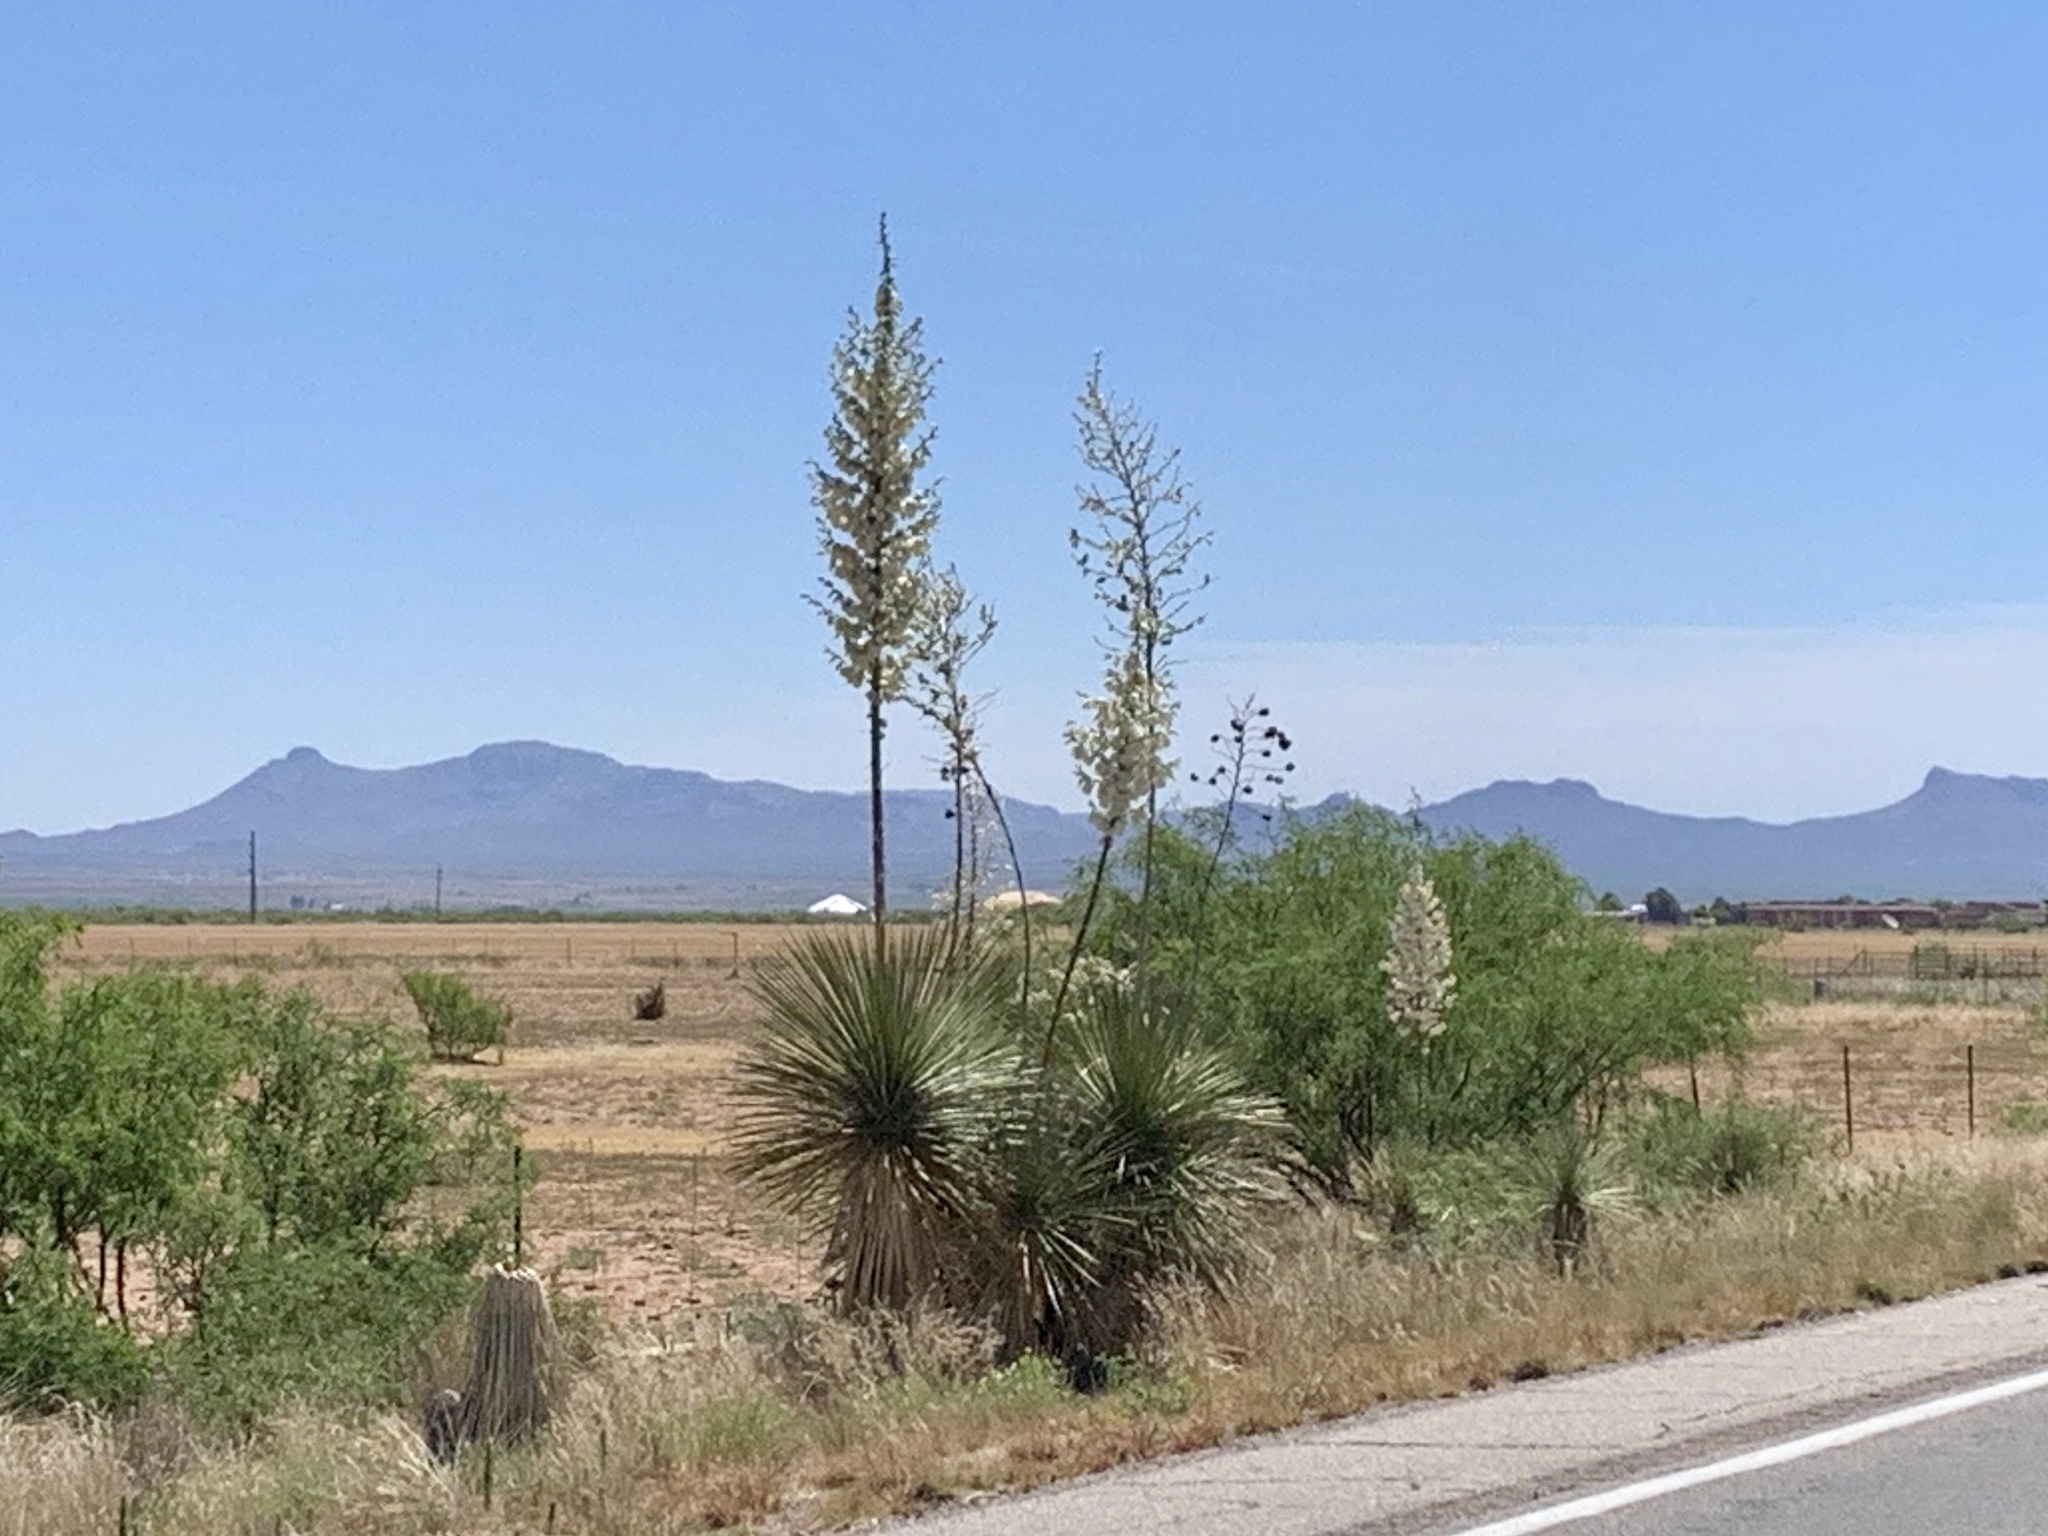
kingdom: Plantae
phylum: Tracheophyta
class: Liliopsida
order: Asparagales
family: Asparagaceae
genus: Yucca
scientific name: Yucca elata
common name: Palmella
